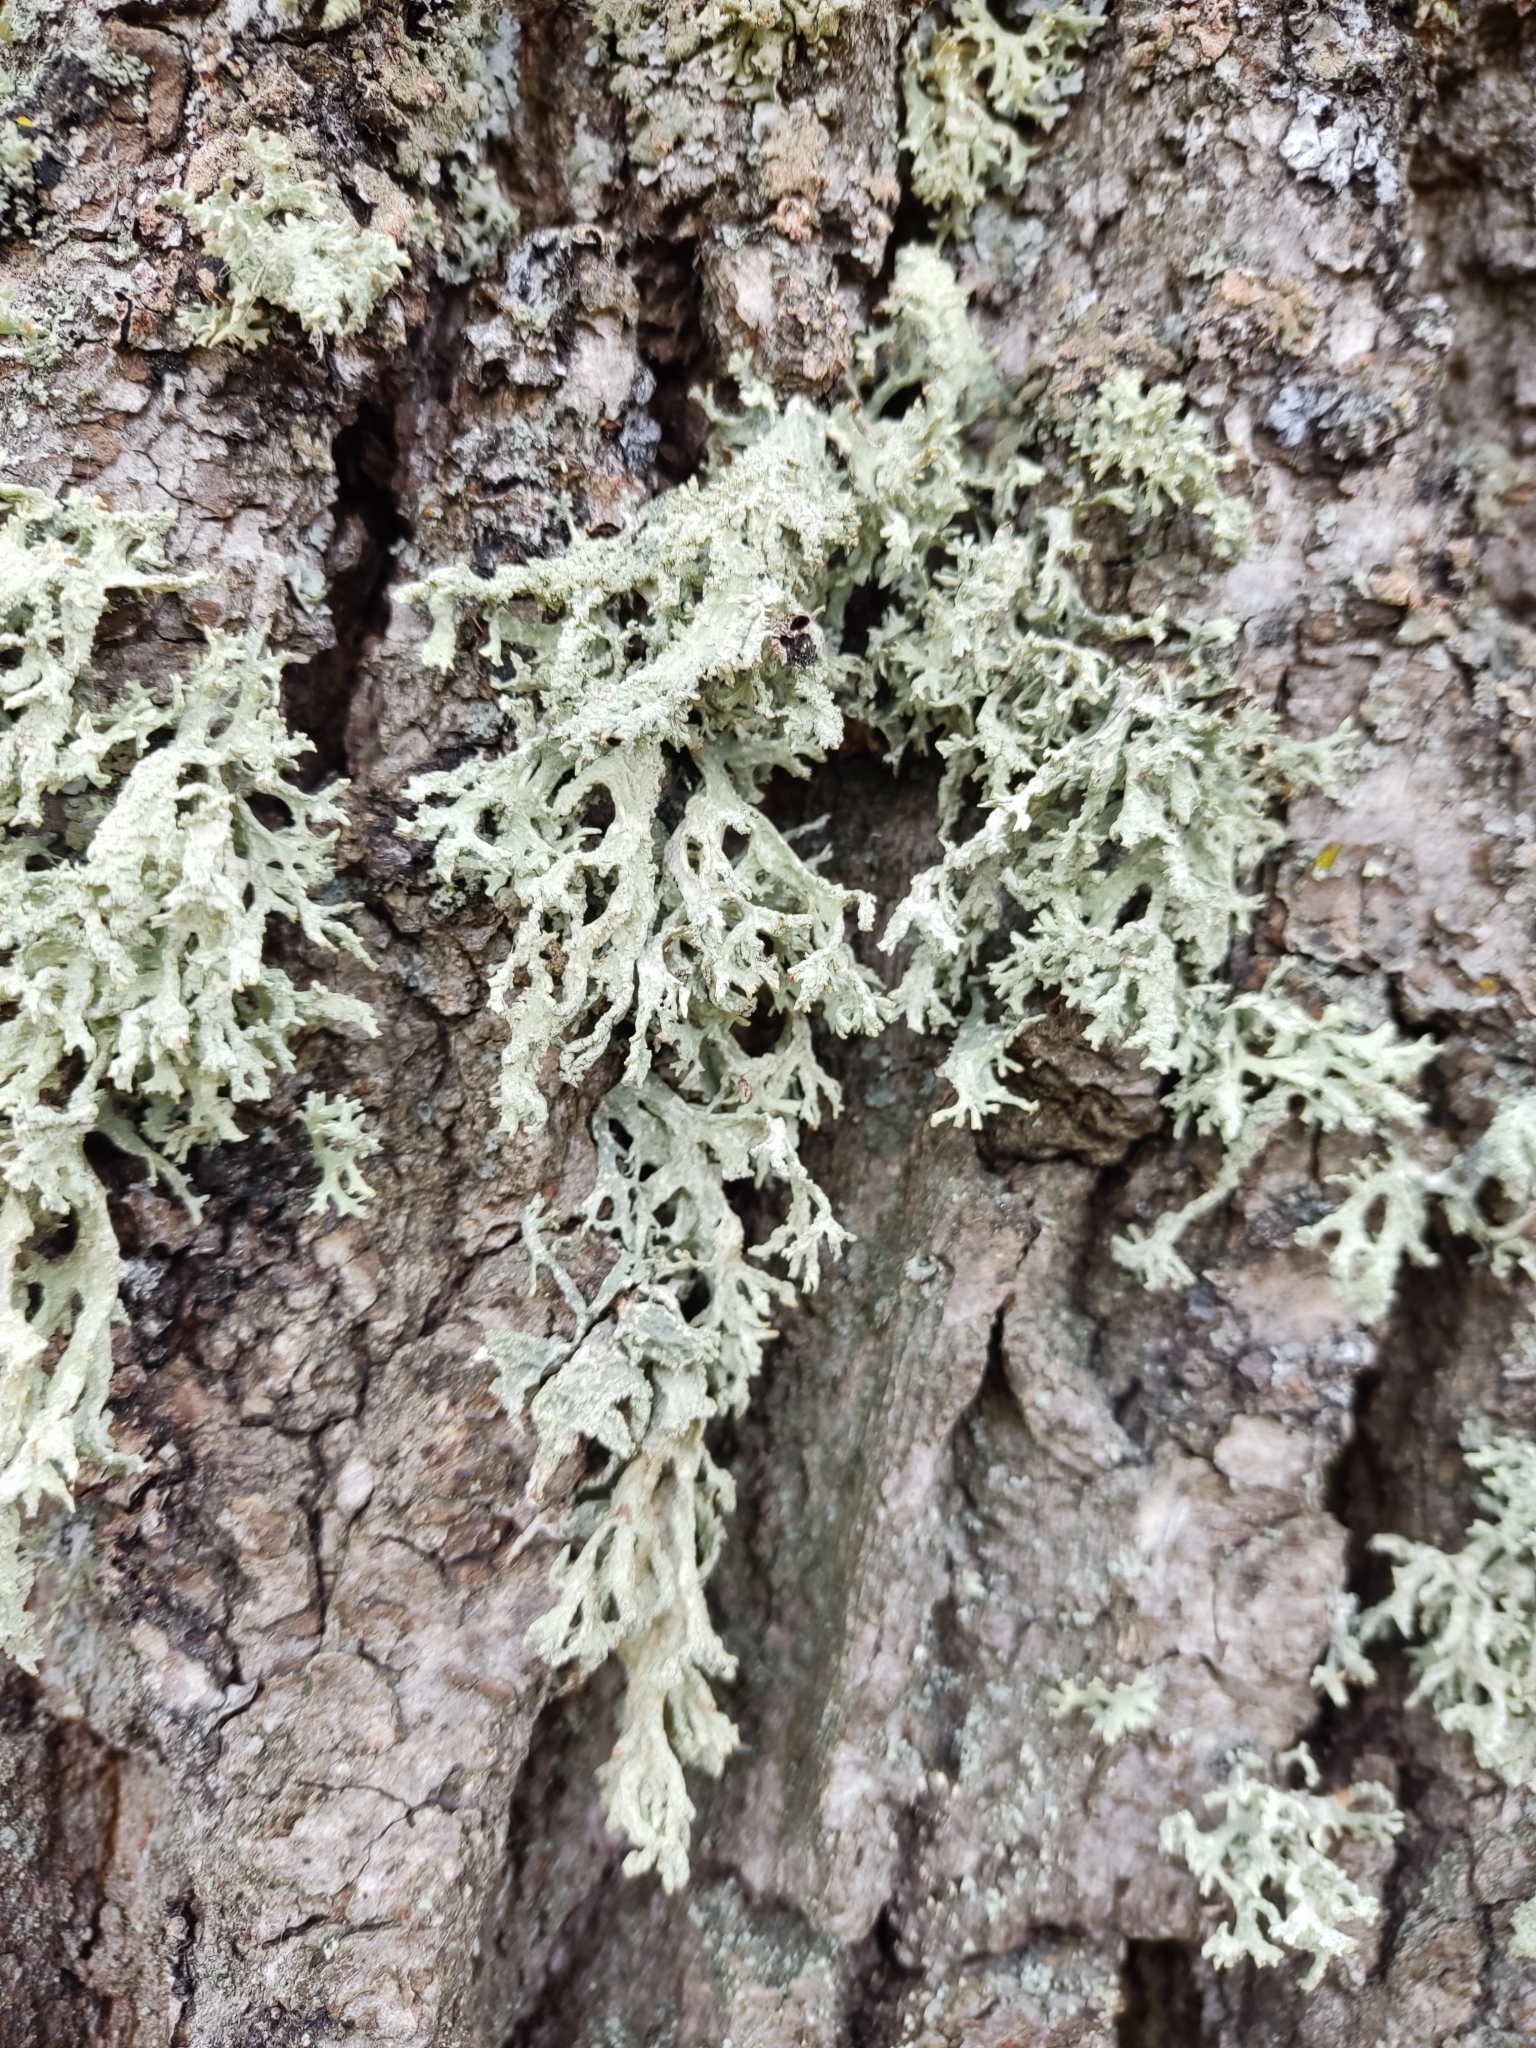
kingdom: Fungi
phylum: Ascomycota
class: Lecanoromycetes
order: Lecanorales
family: Parmeliaceae
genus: Evernia
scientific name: Evernia prunastri
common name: Oak moss
